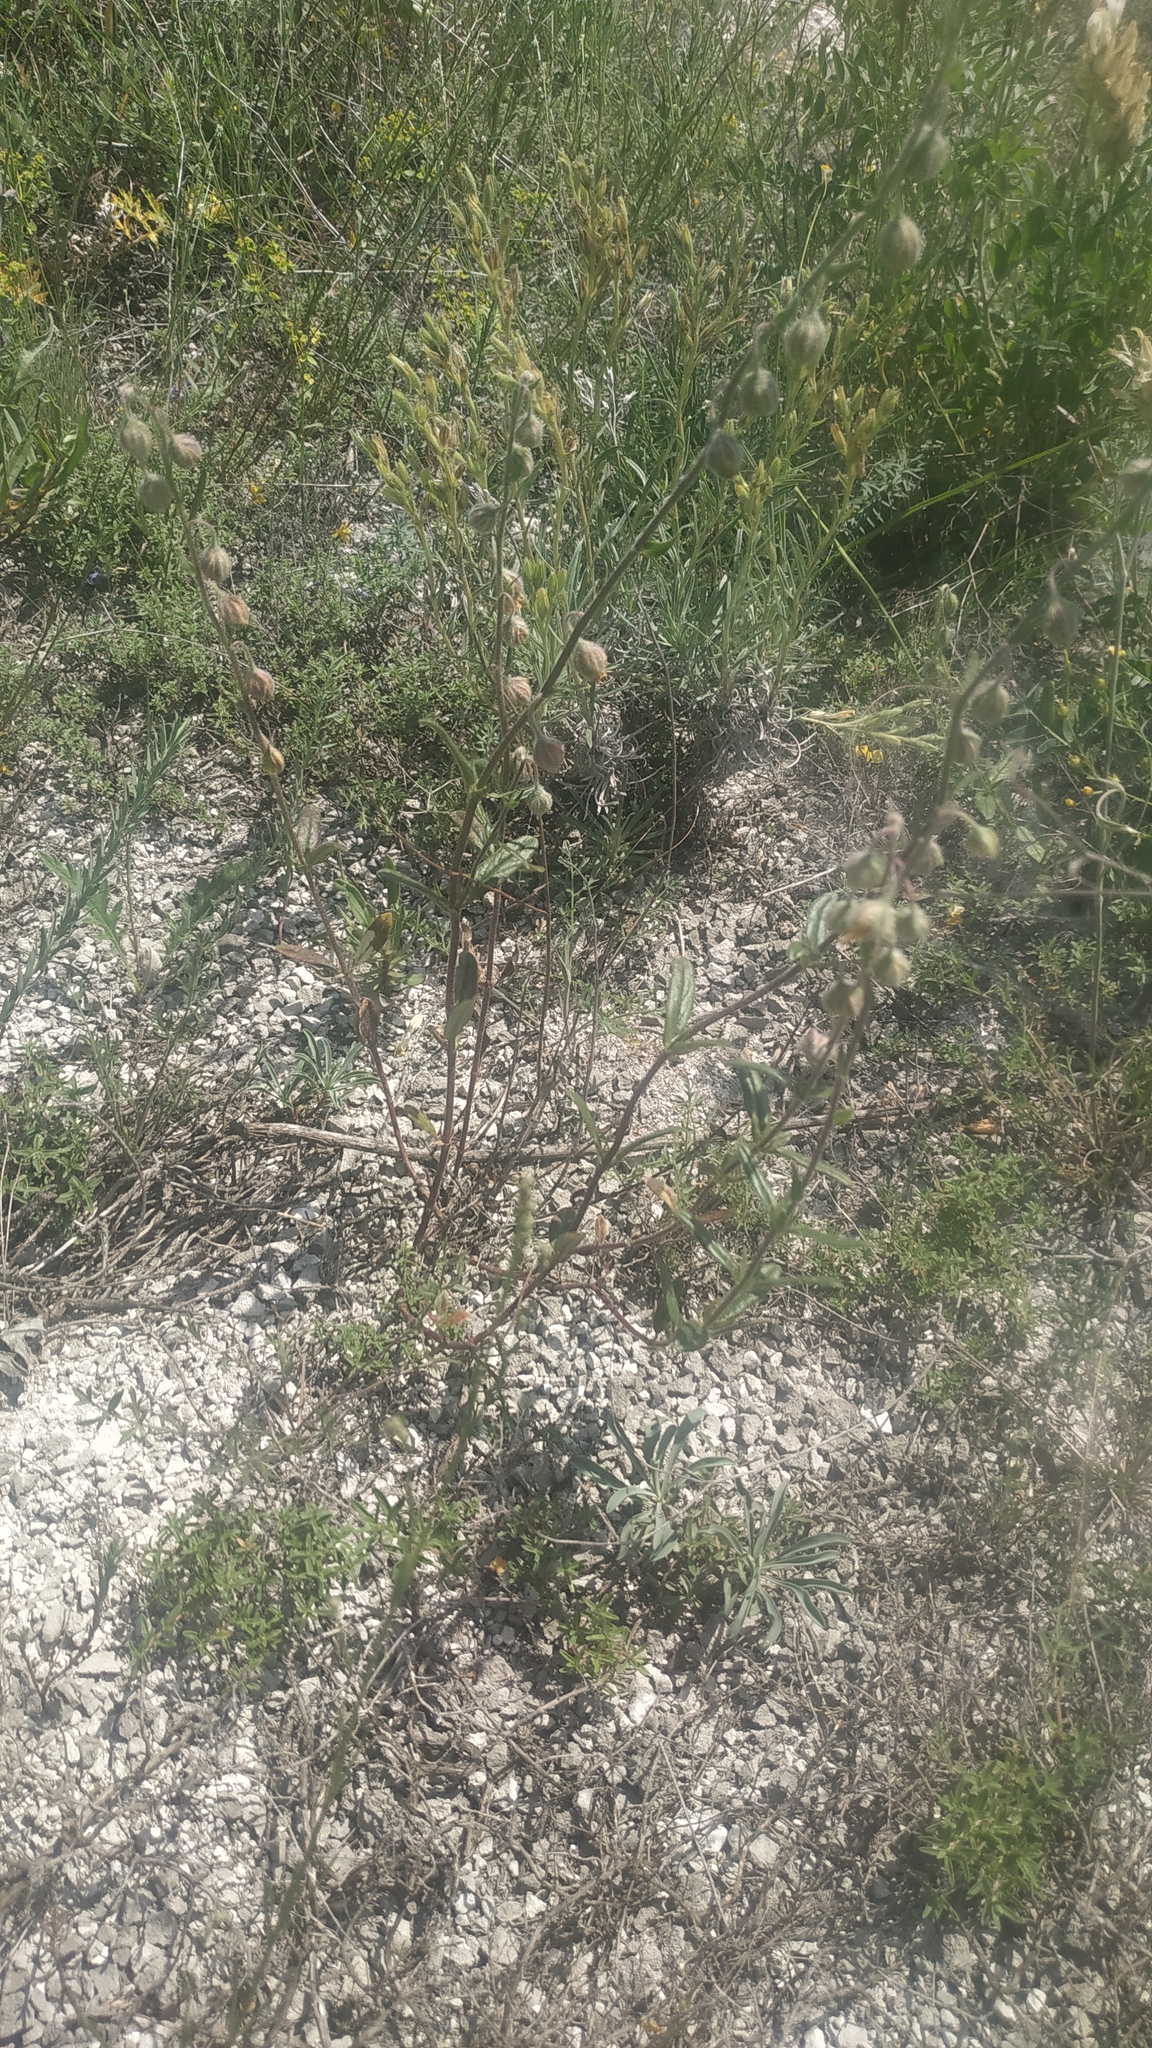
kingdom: Plantae
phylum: Tracheophyta
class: Magnoliopsida
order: Malvales
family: Cistaceae
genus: Helianthemum
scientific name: Helianthemum nummularium
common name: Common rock-rose
